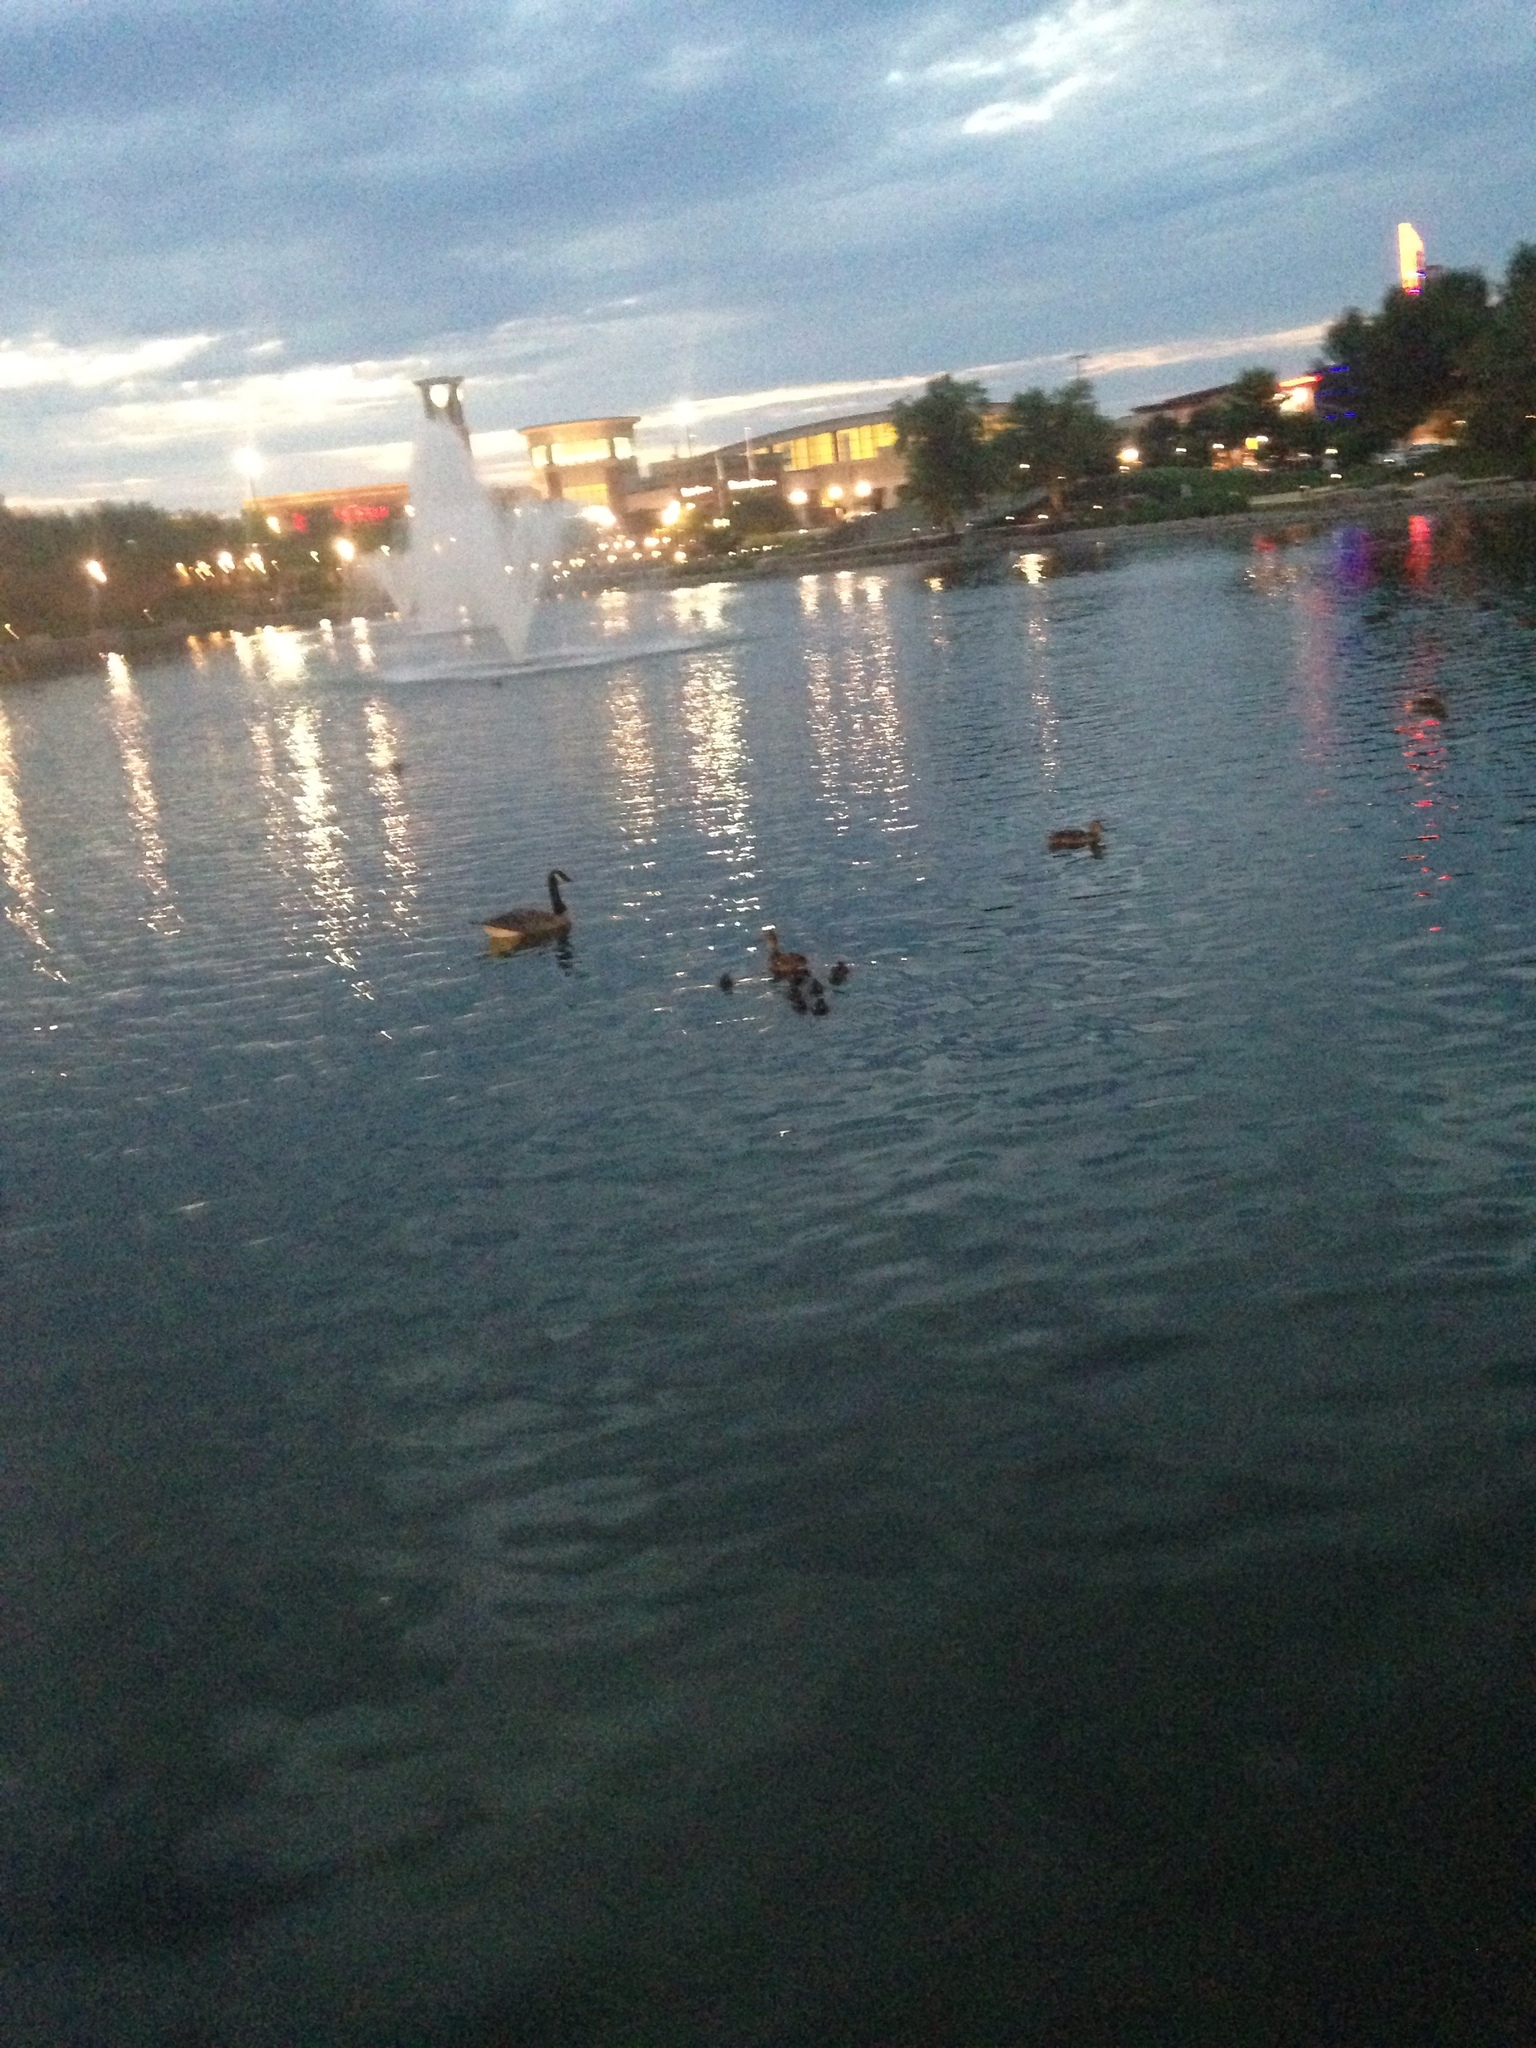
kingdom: Animalia
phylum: Chordata
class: Aves
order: Anseriformes
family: Anatidae
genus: Branta
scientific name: Branta canadensis
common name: Canada goose
